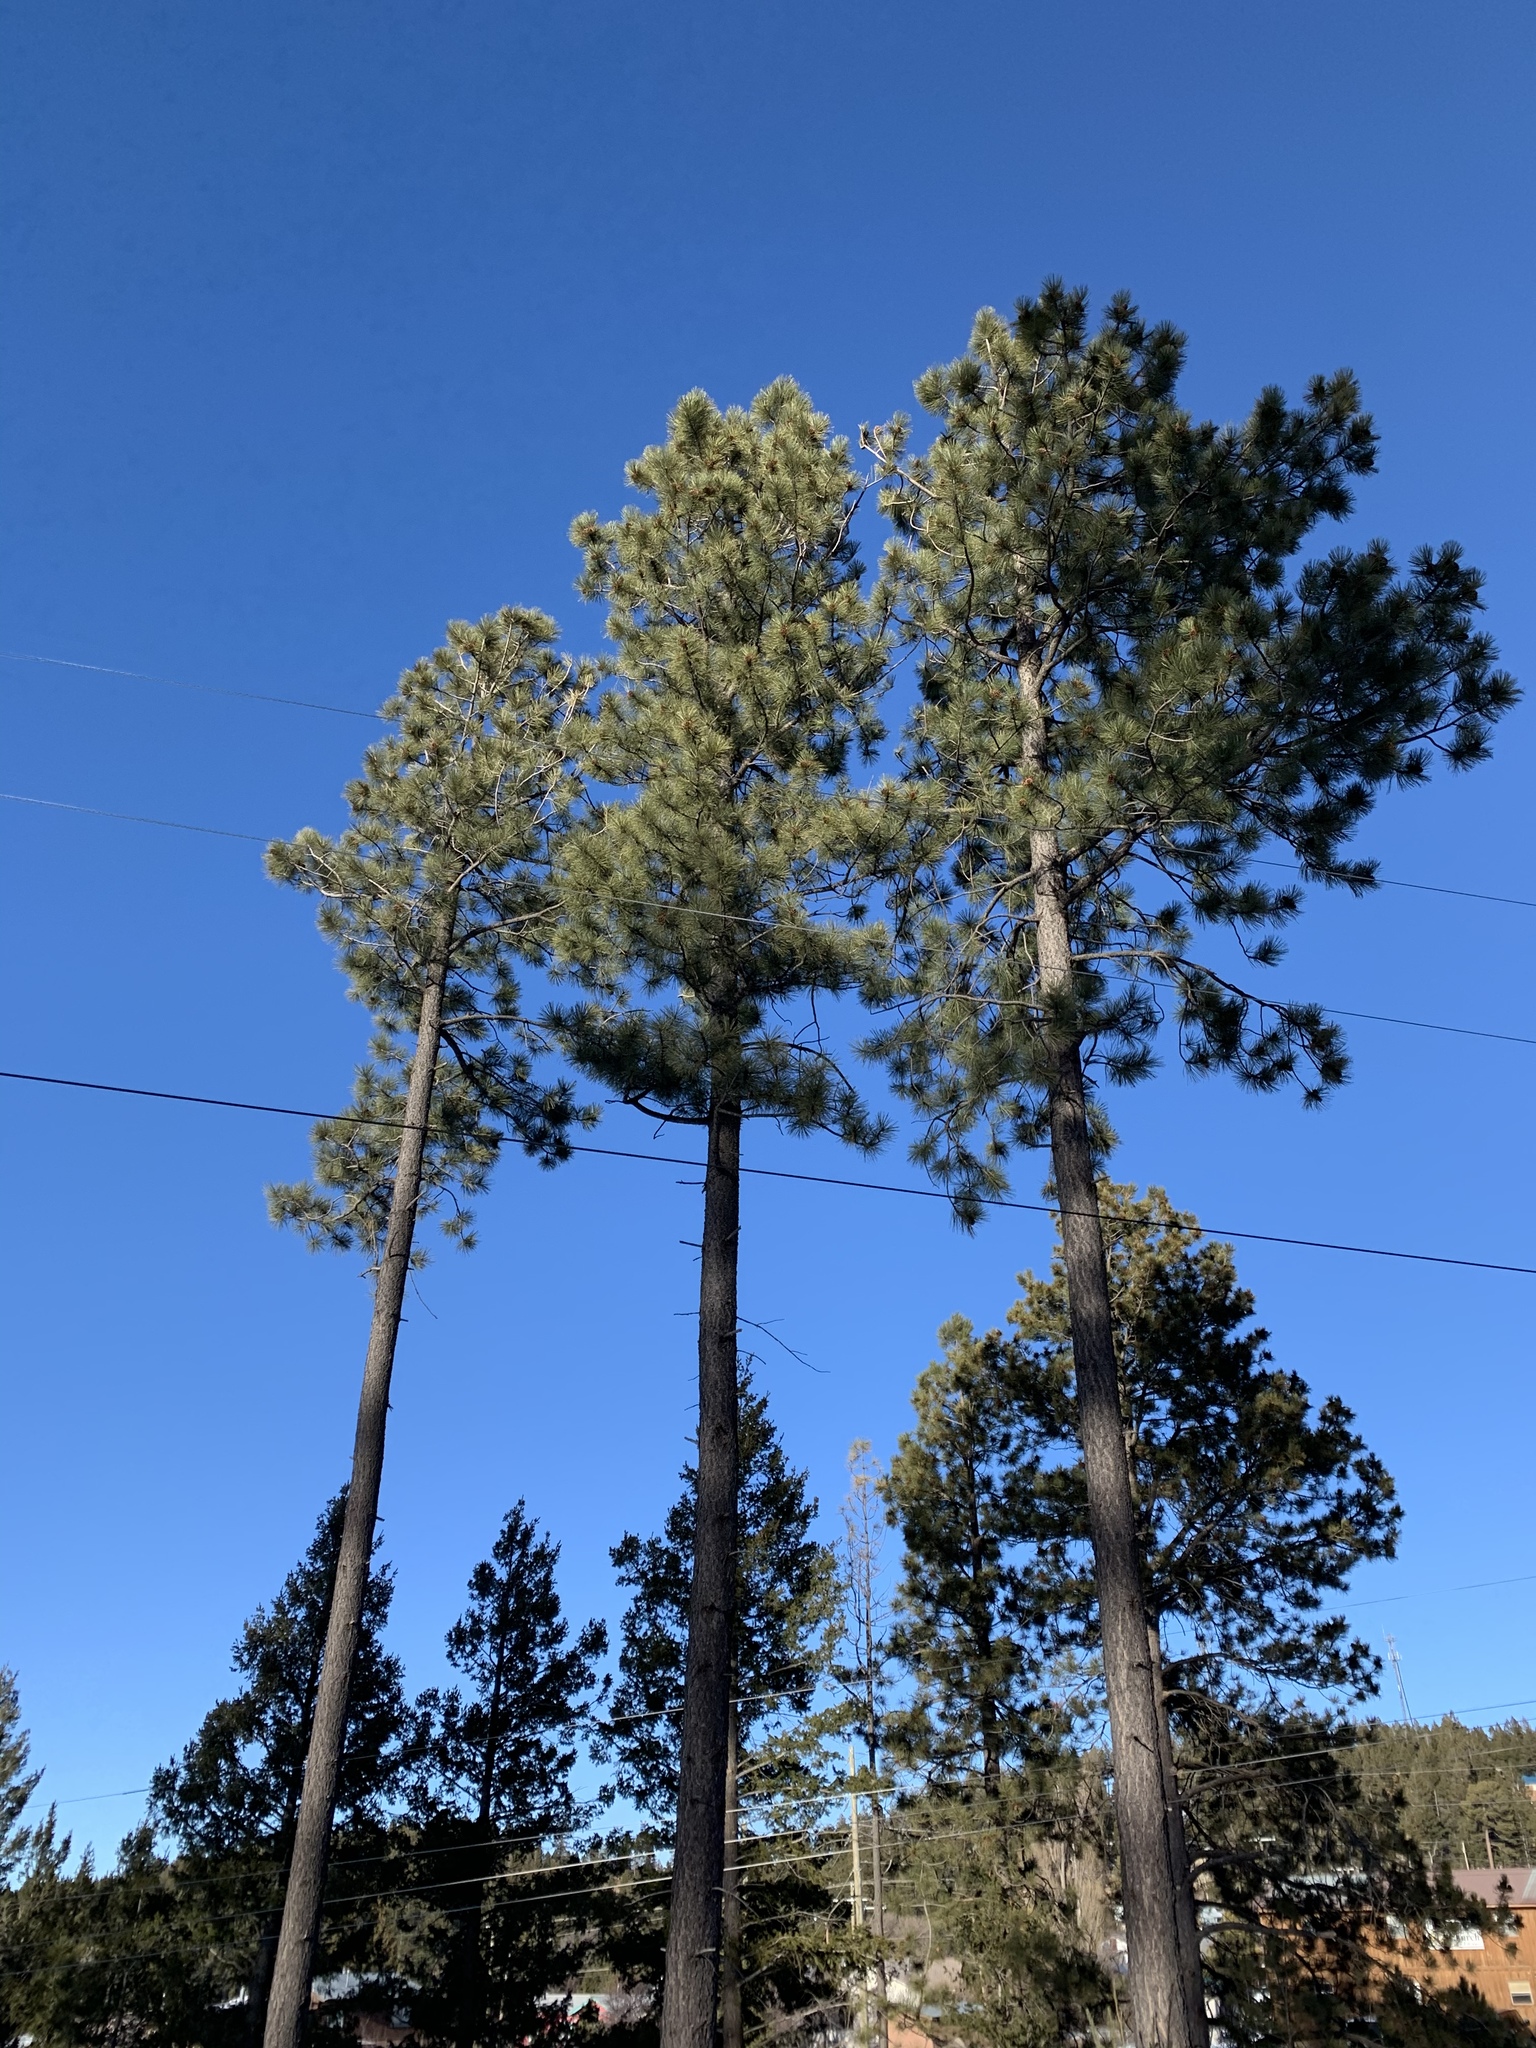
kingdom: Plantae
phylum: Tracheophyta
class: Pinopsida
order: Pinales
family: Pinaceae
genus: Pinus
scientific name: Pinus ponderosa
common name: Western yellow-pine
